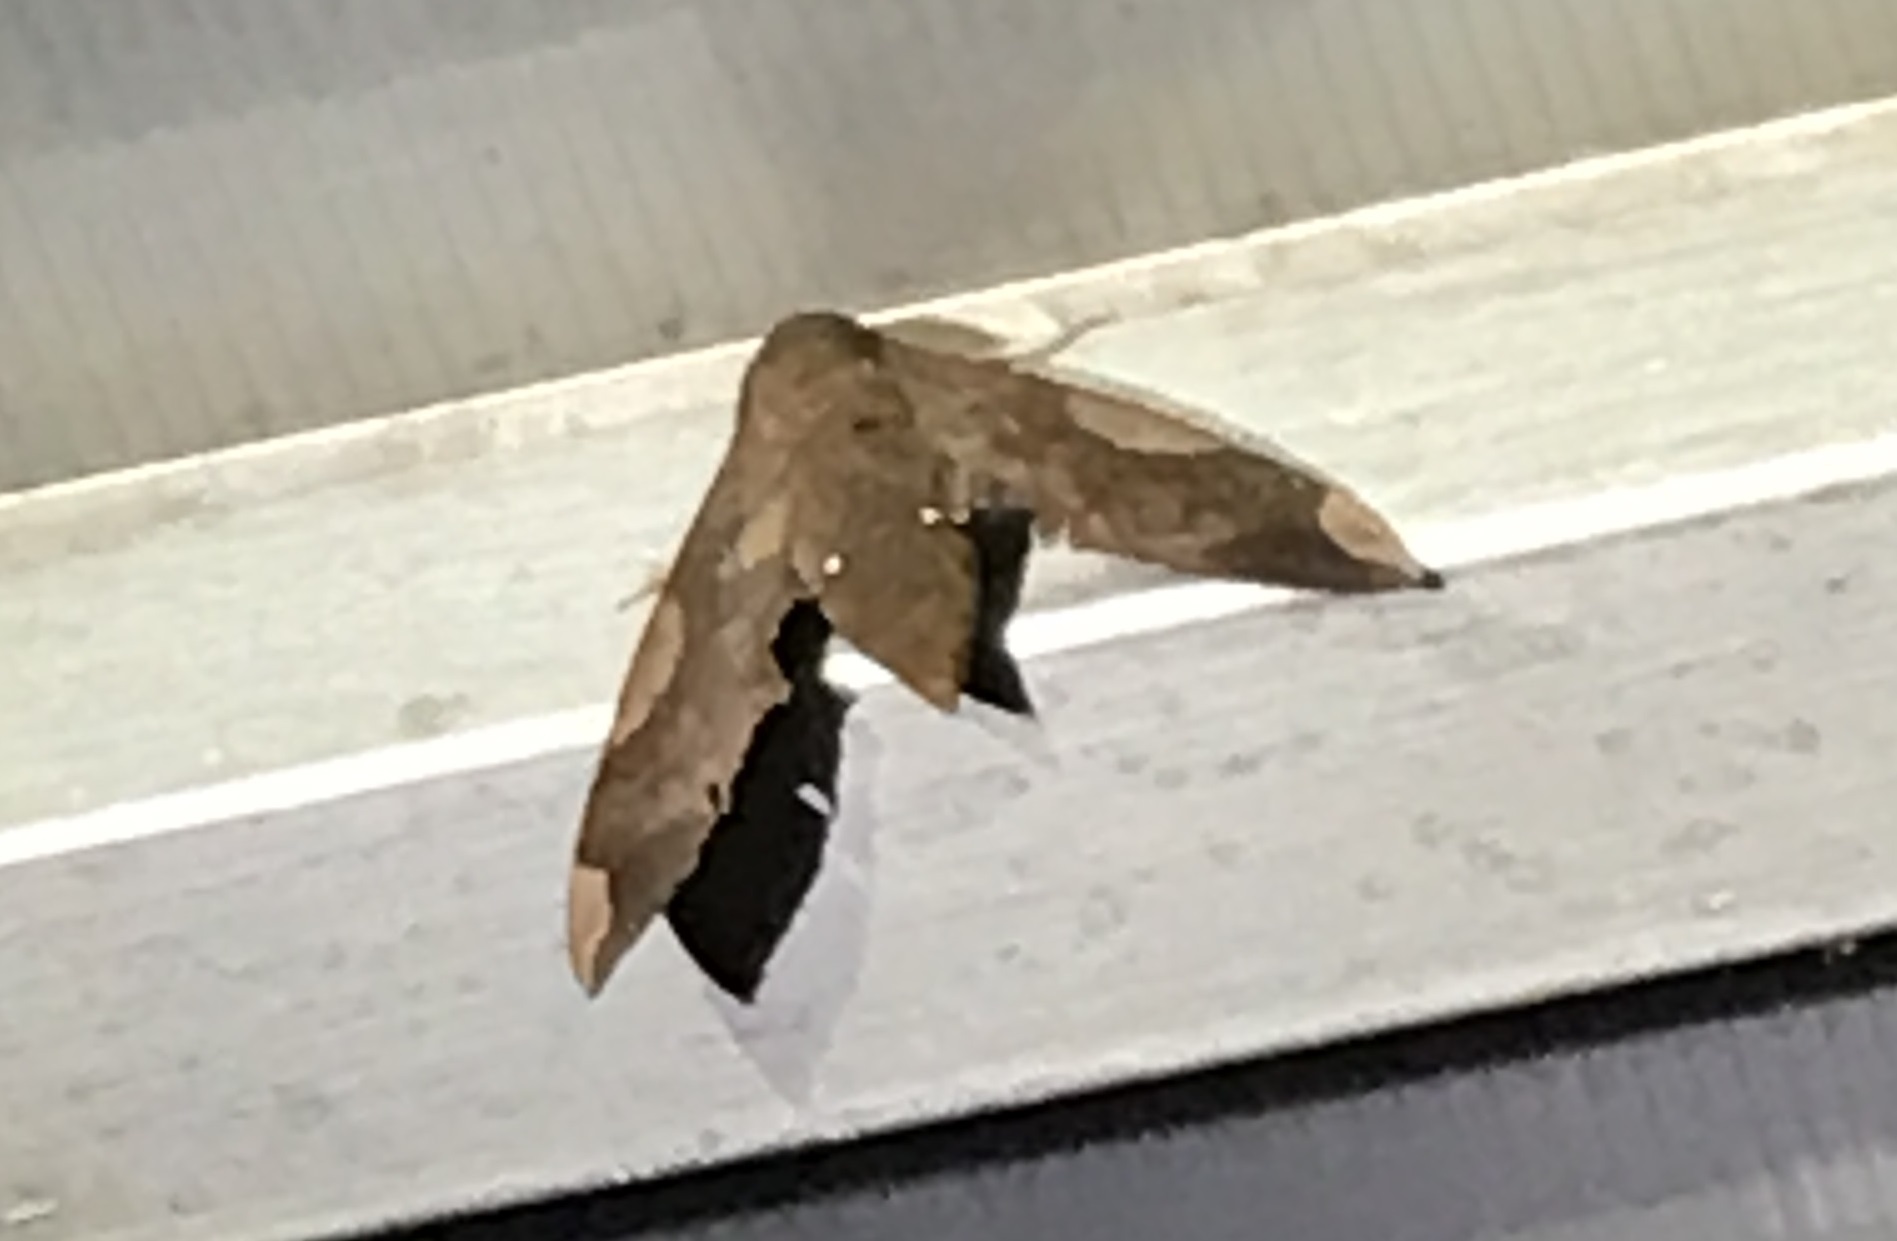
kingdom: Animalia
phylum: Arthropoda
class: Insecta
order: Lepidoptera
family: Sphingidae
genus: Pachylia
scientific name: Pachylia syces
